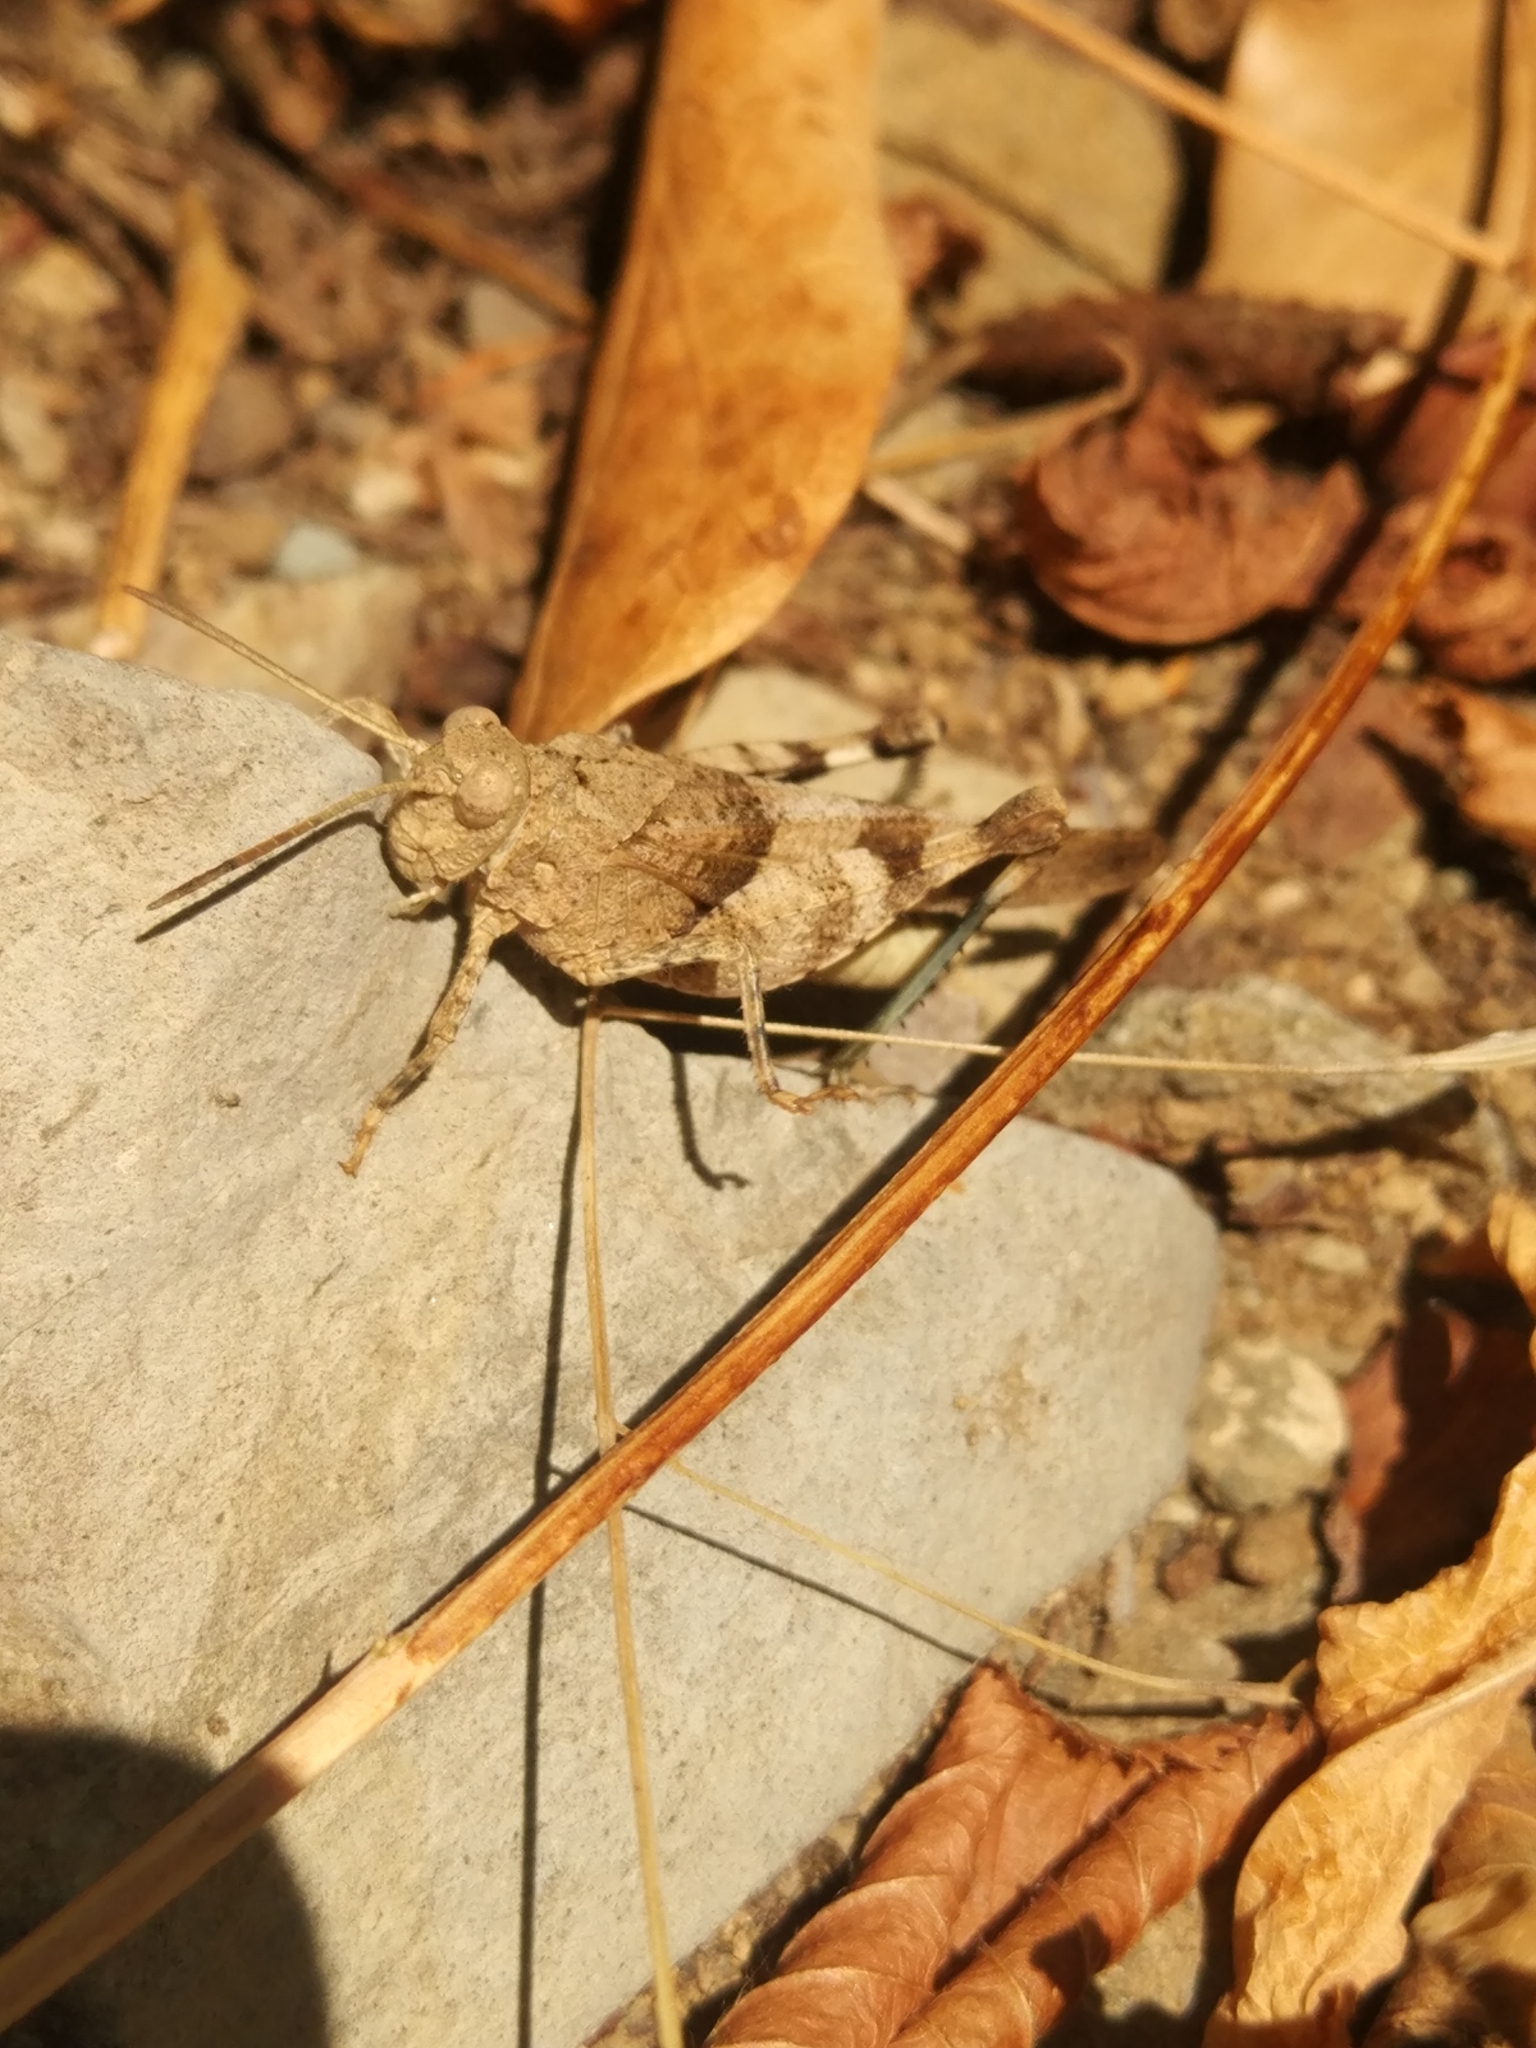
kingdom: Animalia
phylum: Arthropoda
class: Insecta
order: Orthoptera
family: Acrididae
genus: Oedipoda
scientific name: Oedipoda caerulescens
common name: Blue-winged grasshopper
